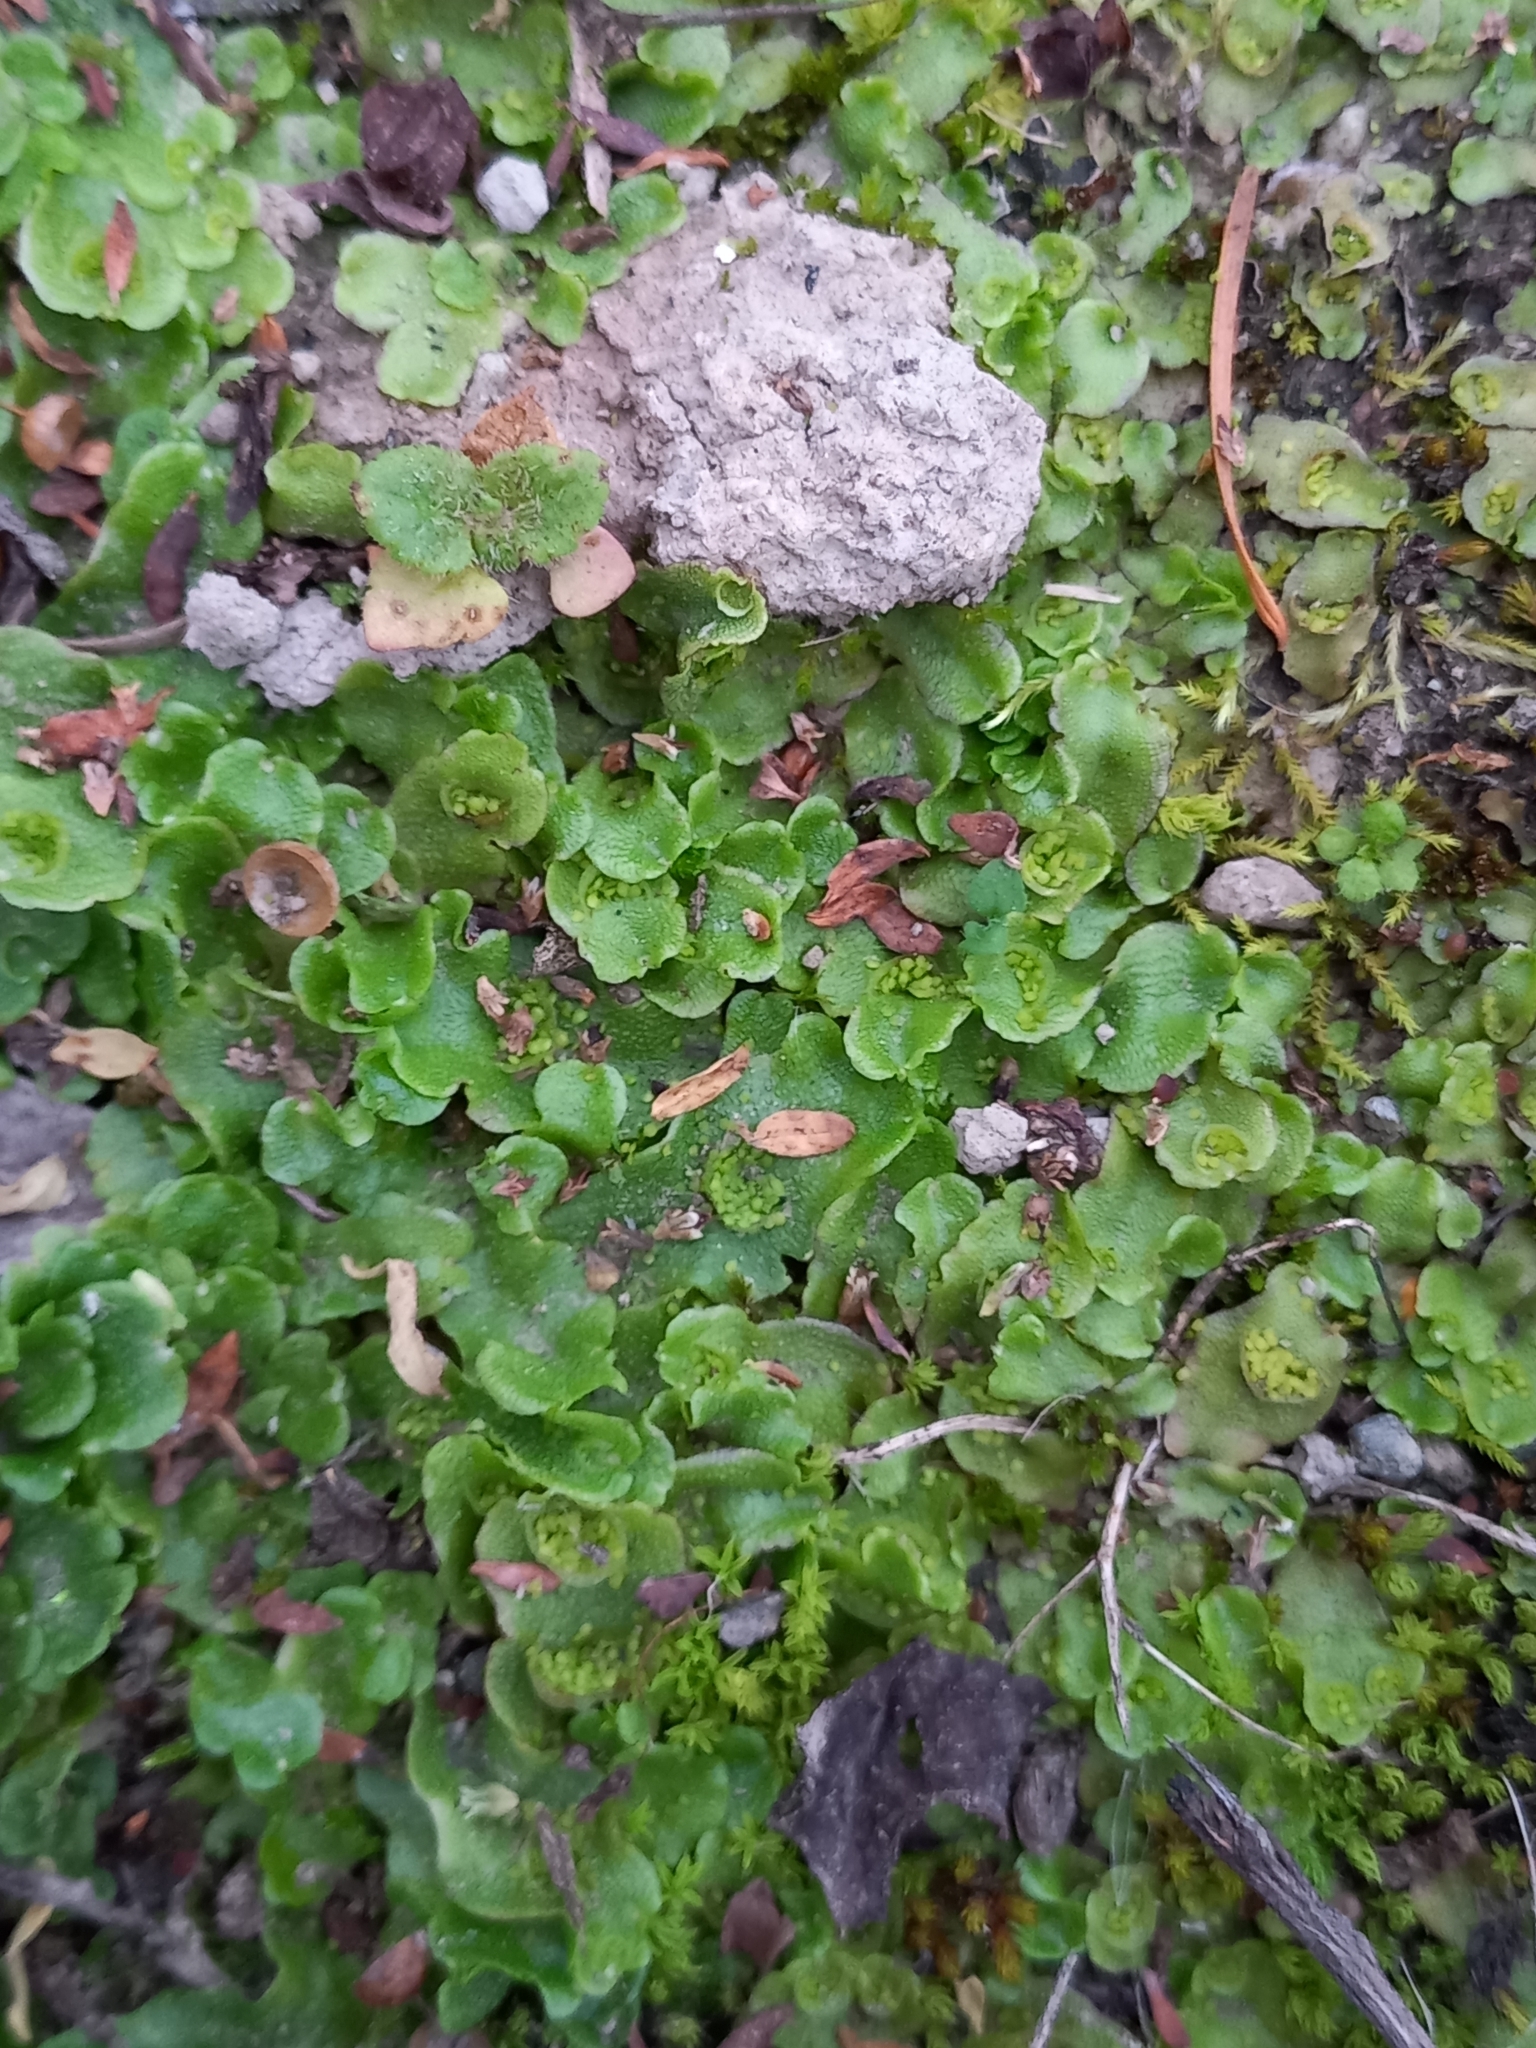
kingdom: Plantae
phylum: Marchantiophyta
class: Marchantiopsida
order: Lunulariales
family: Lunulariaceae
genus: Lunularia
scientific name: Lunularia cruciata
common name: Crescent-cup liverwort
